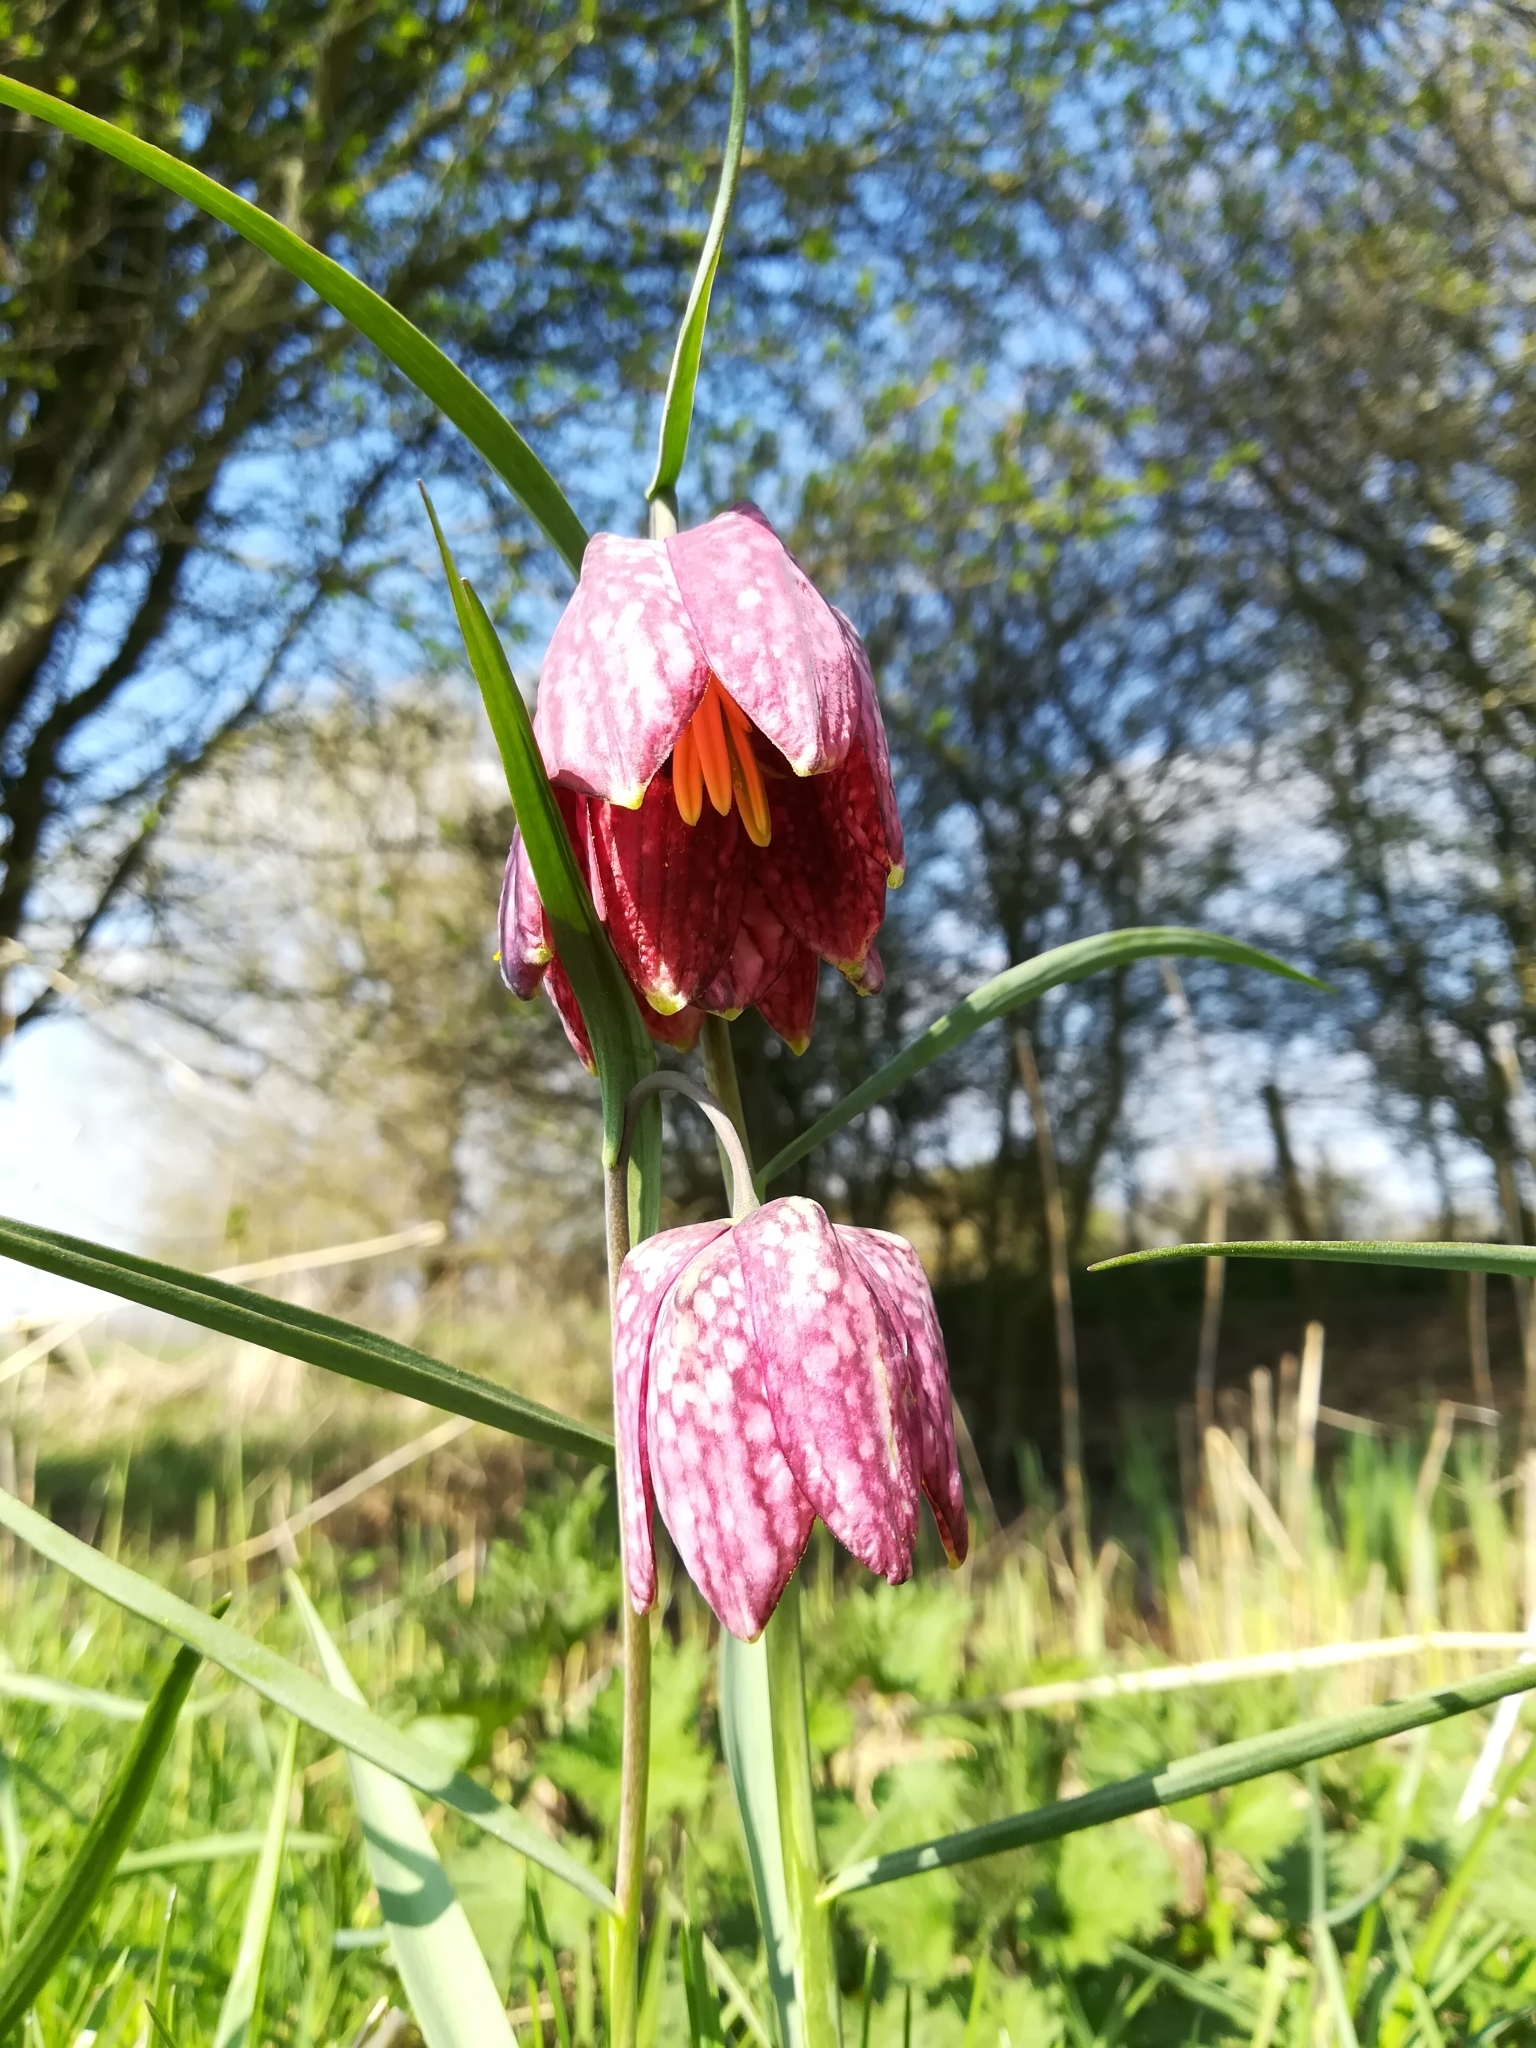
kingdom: Plantae
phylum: Tracheophyta
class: Liliopsida
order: Liliales
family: Liliaceae
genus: Fritillaria
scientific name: Fritillaria meleagris
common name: Fritillary
